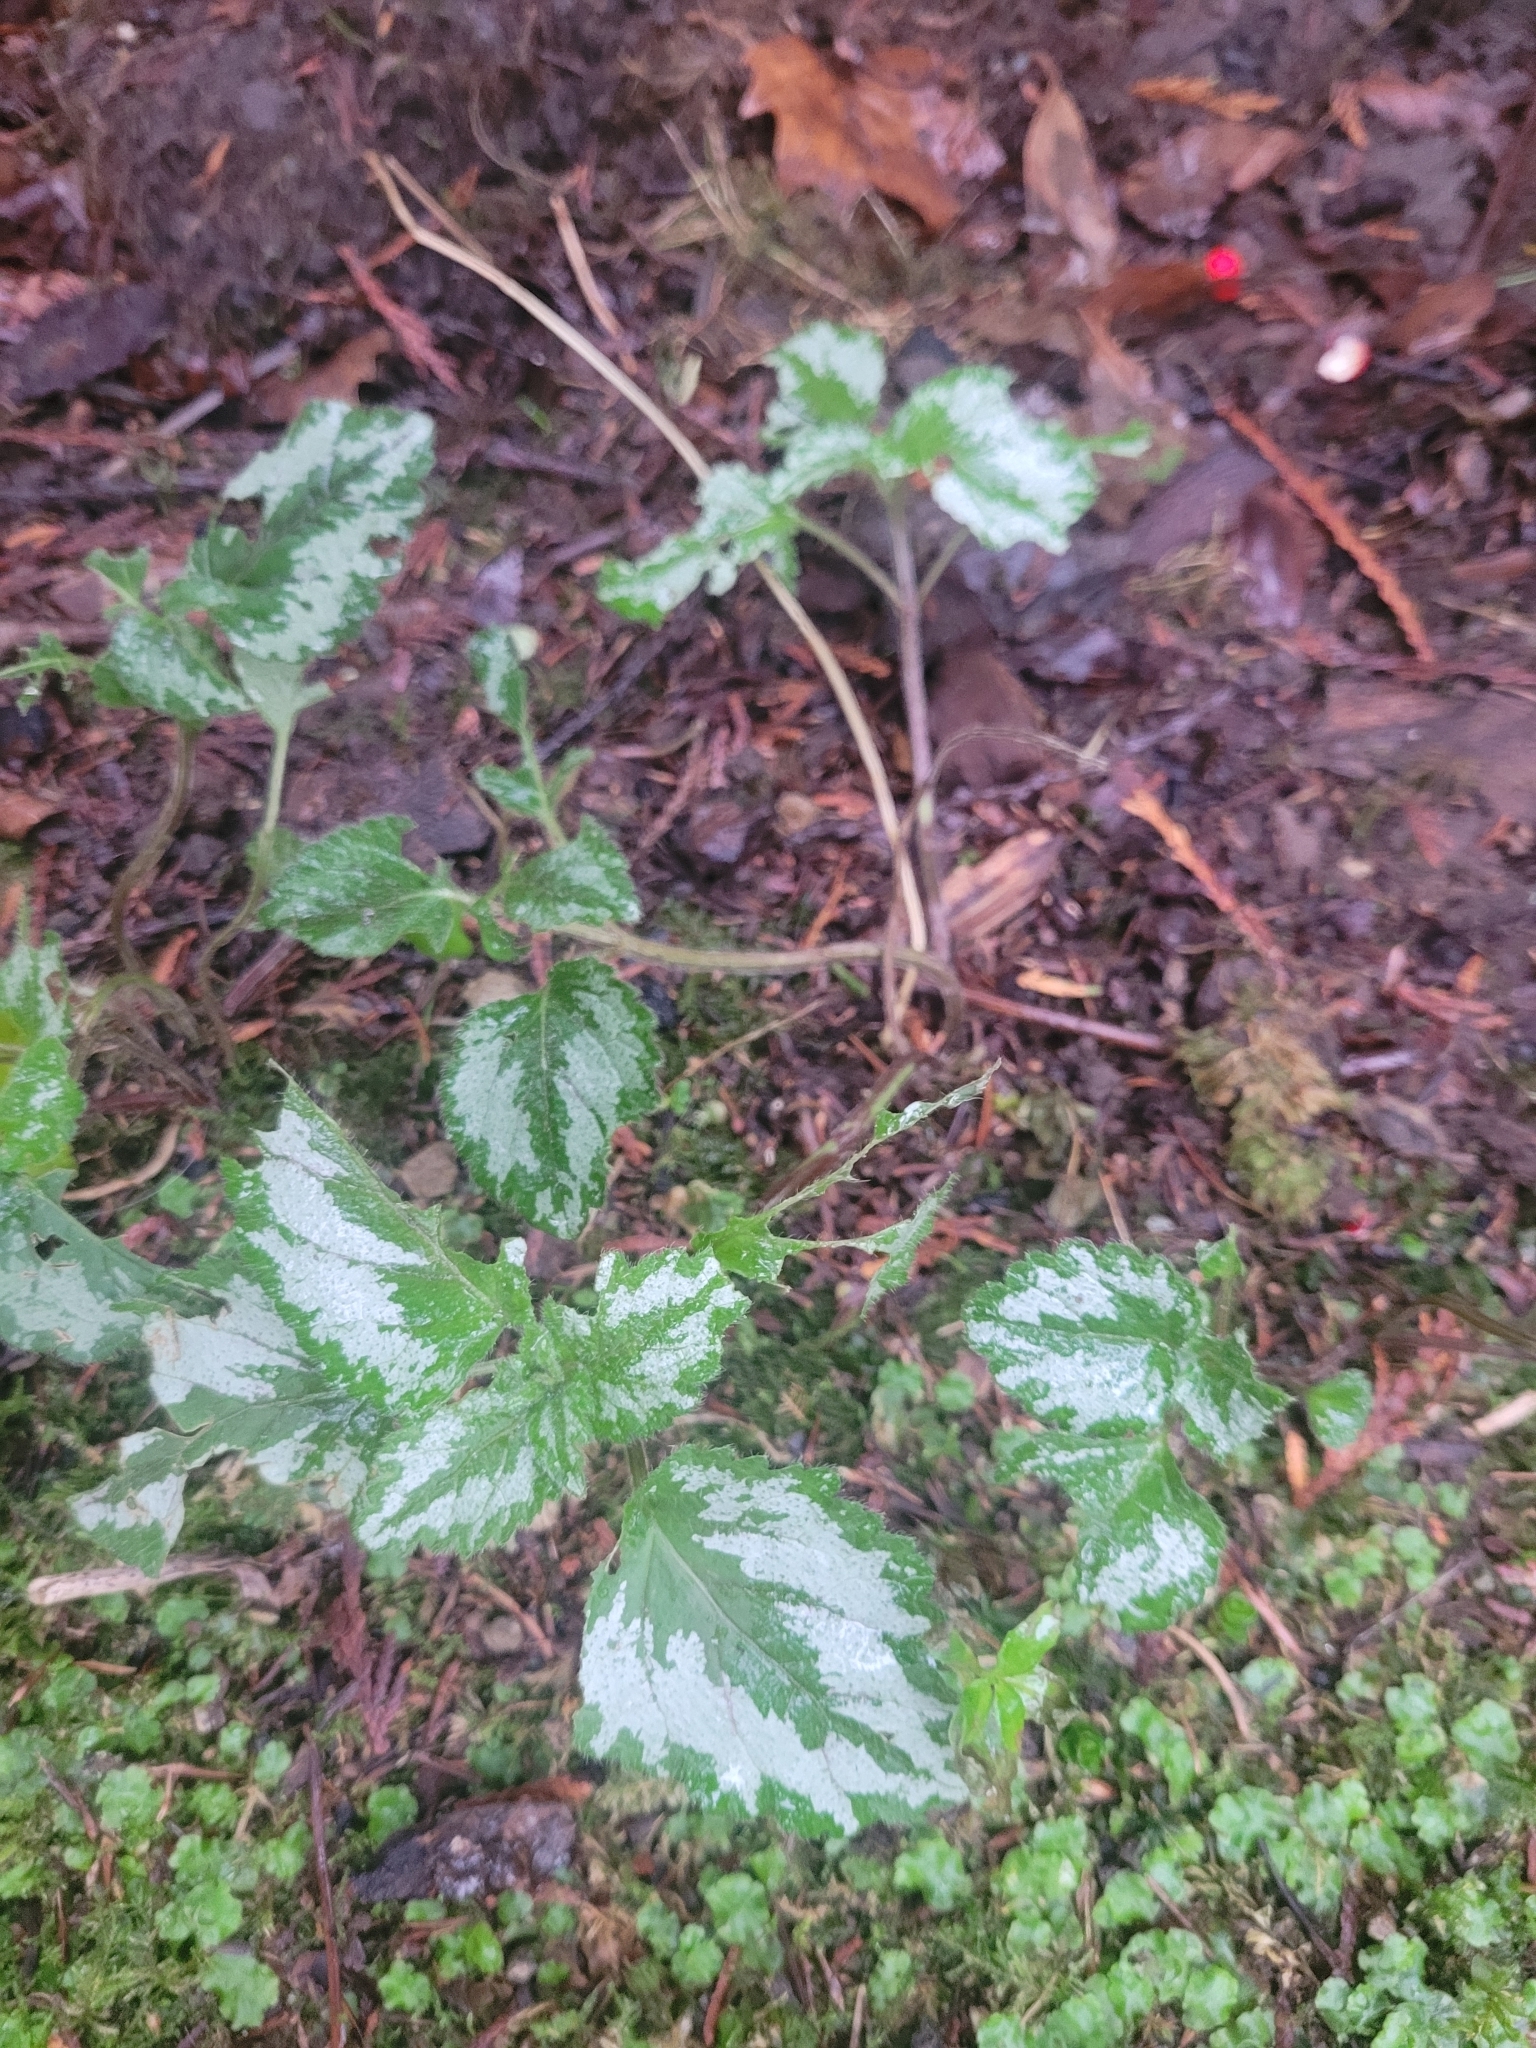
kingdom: Plantae
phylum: Tracheophyta
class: Magnoliopsida
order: Lamiales
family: Lamiaceae
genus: Lamium
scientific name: Lamium galeobdolon
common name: Yellow archangel
